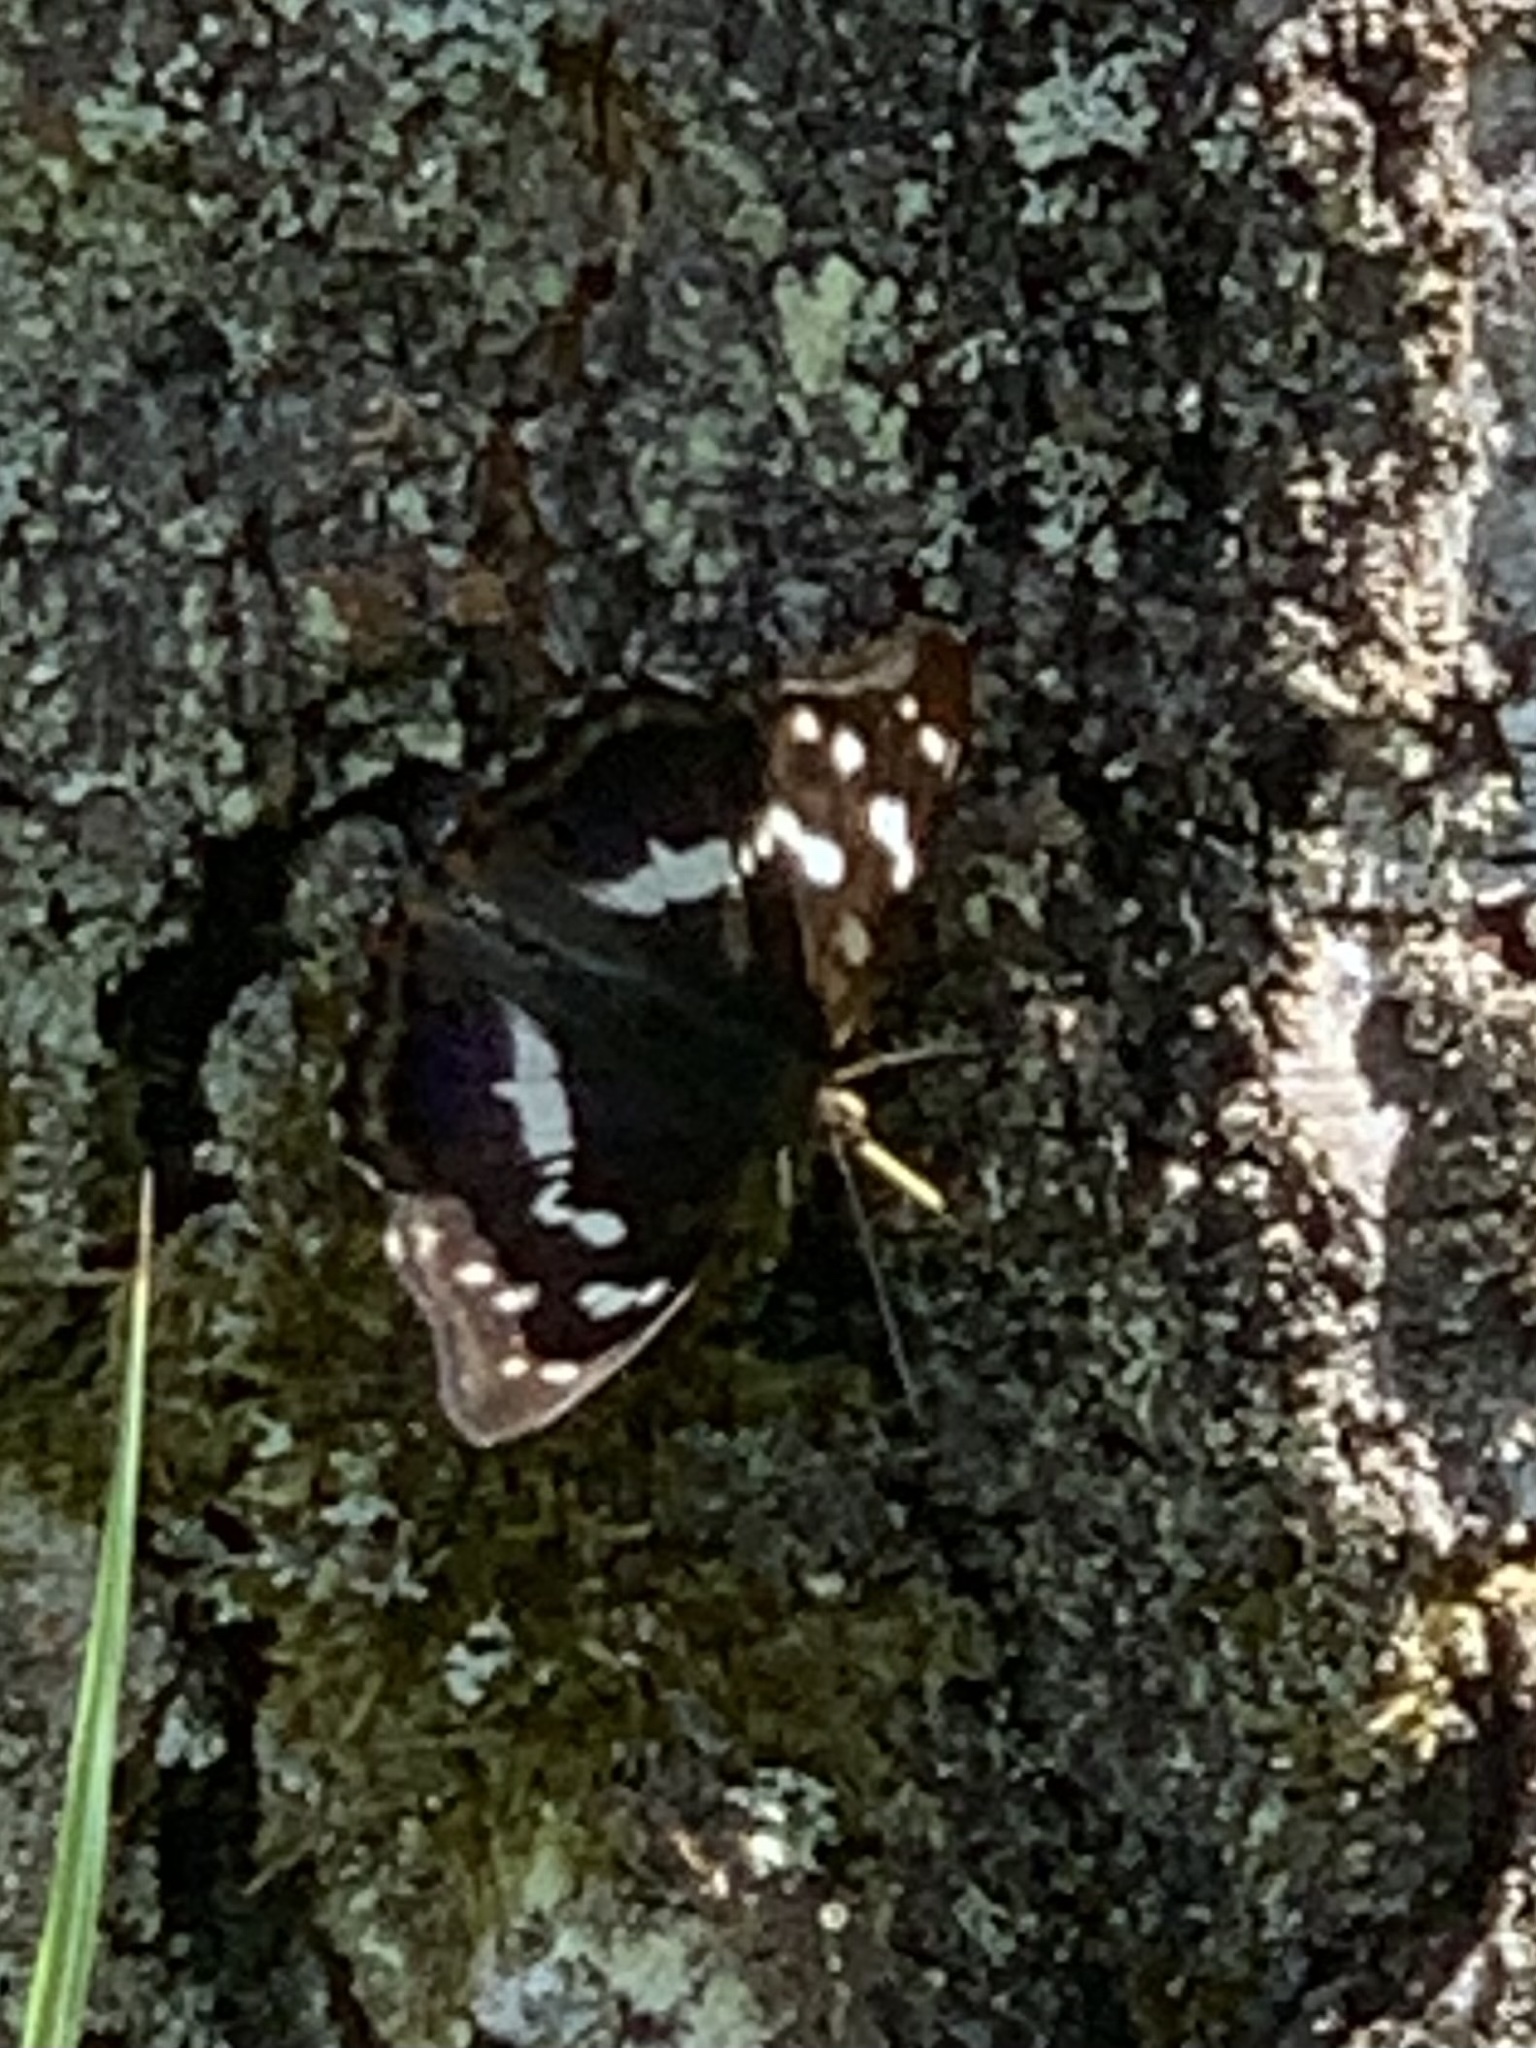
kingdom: Animalia
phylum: Arthropoda
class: Insecta
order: Lepidoptera
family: Nymphalidae
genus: Apatura
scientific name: Apatura iris
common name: Purple emperor
